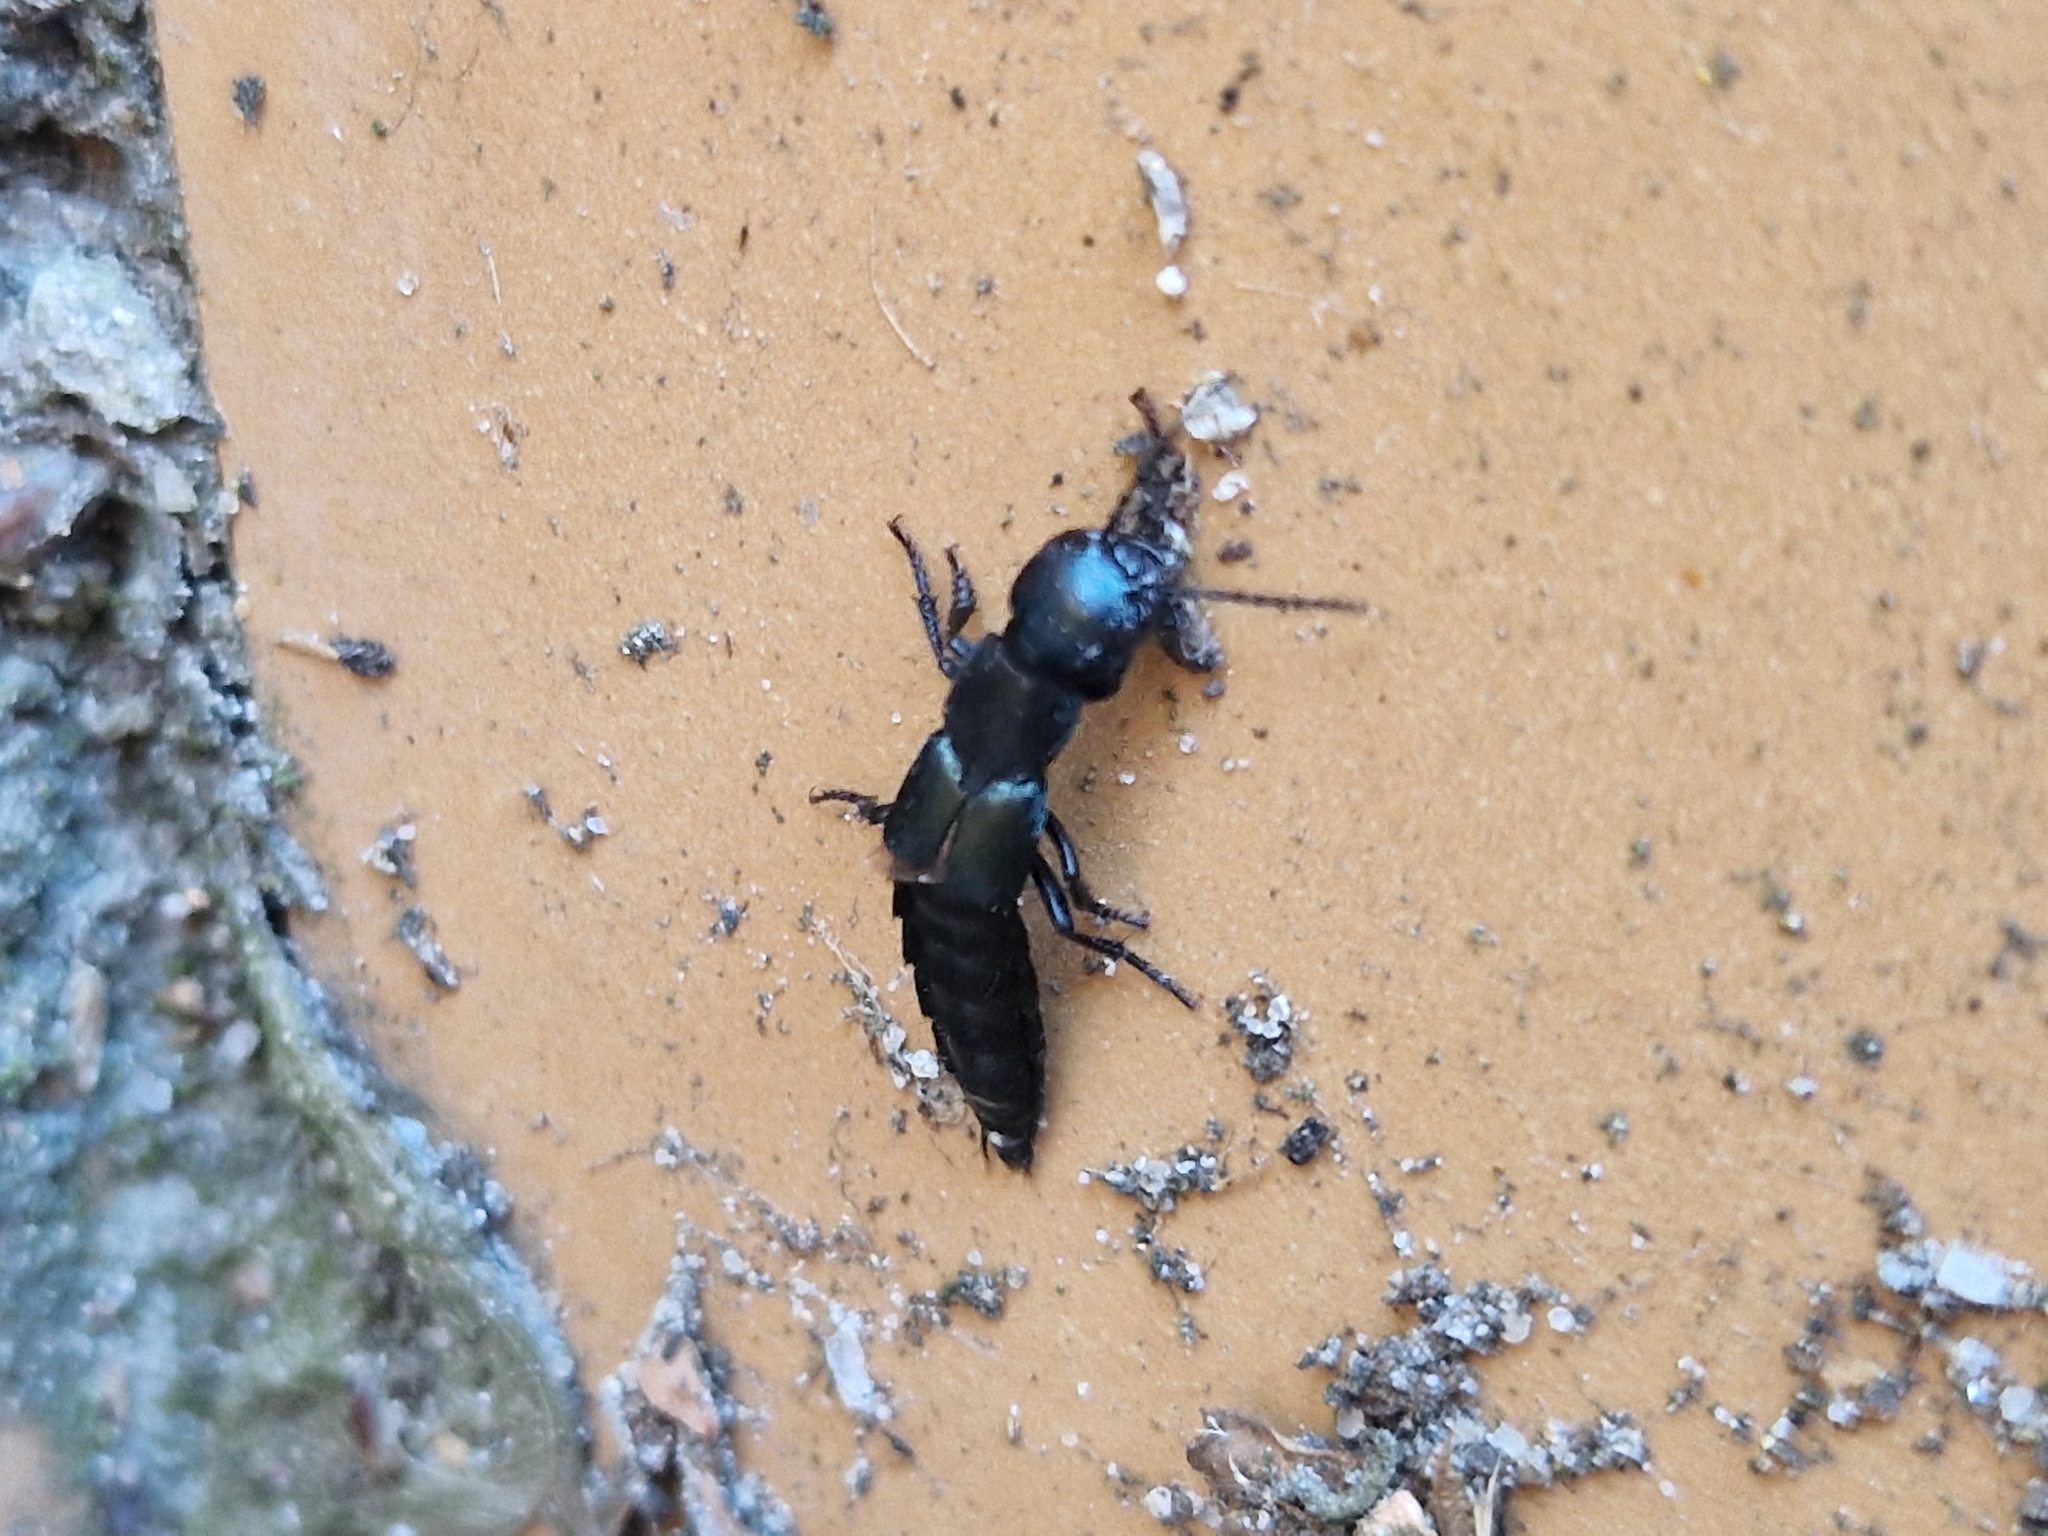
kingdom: Animalia
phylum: Arthropoda
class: Insecta
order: Coleoptera
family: Staphylinidae
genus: Ocypus
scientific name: Ocypus ophthalmicus
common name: Blue rove-beetle
